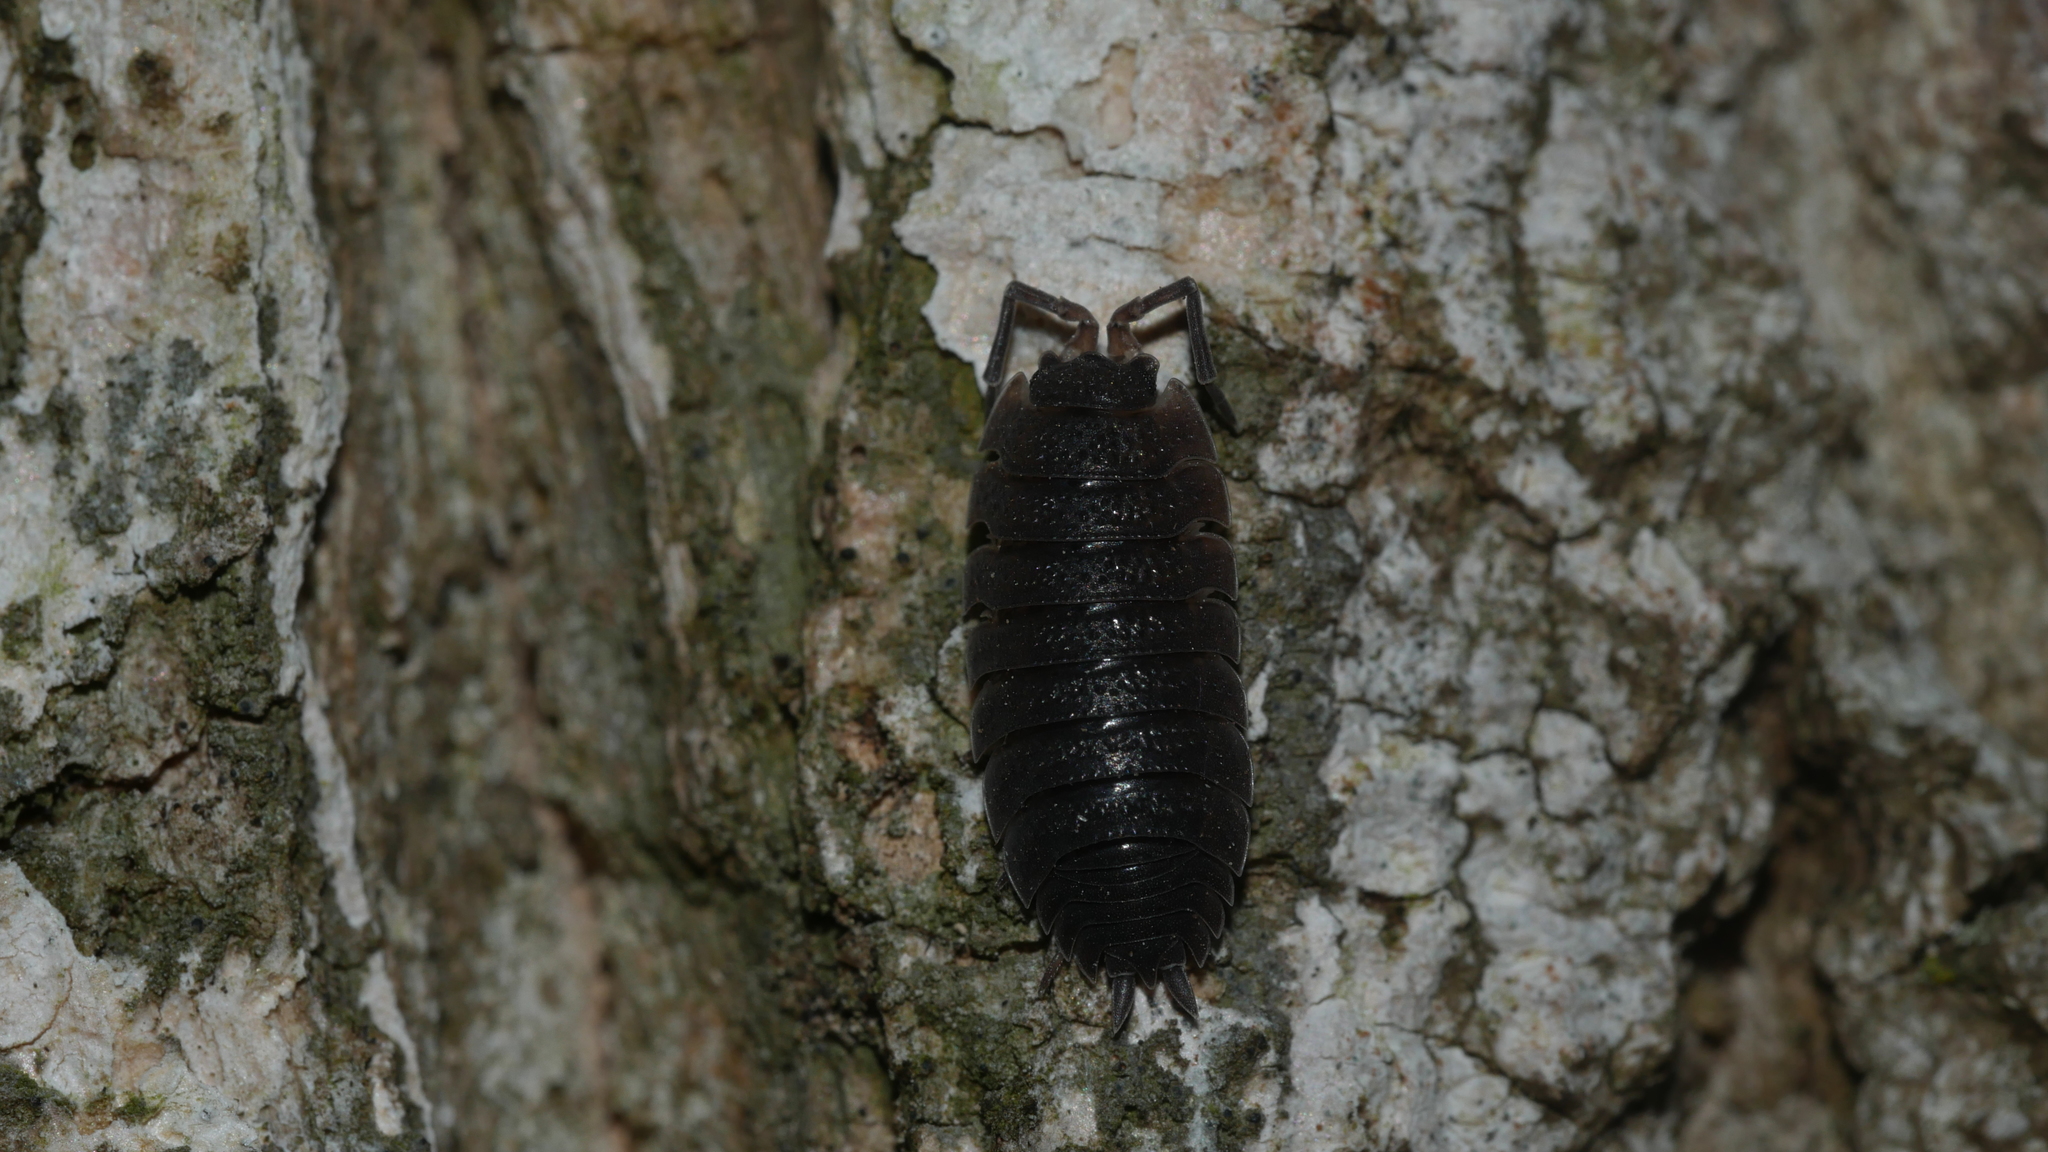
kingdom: Animalia
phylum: Arthropoda
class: Malacostraca
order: Isopoda
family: Porcellionidae
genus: Porcellio
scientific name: Porcellio scaber
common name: Common rough woodlouse
